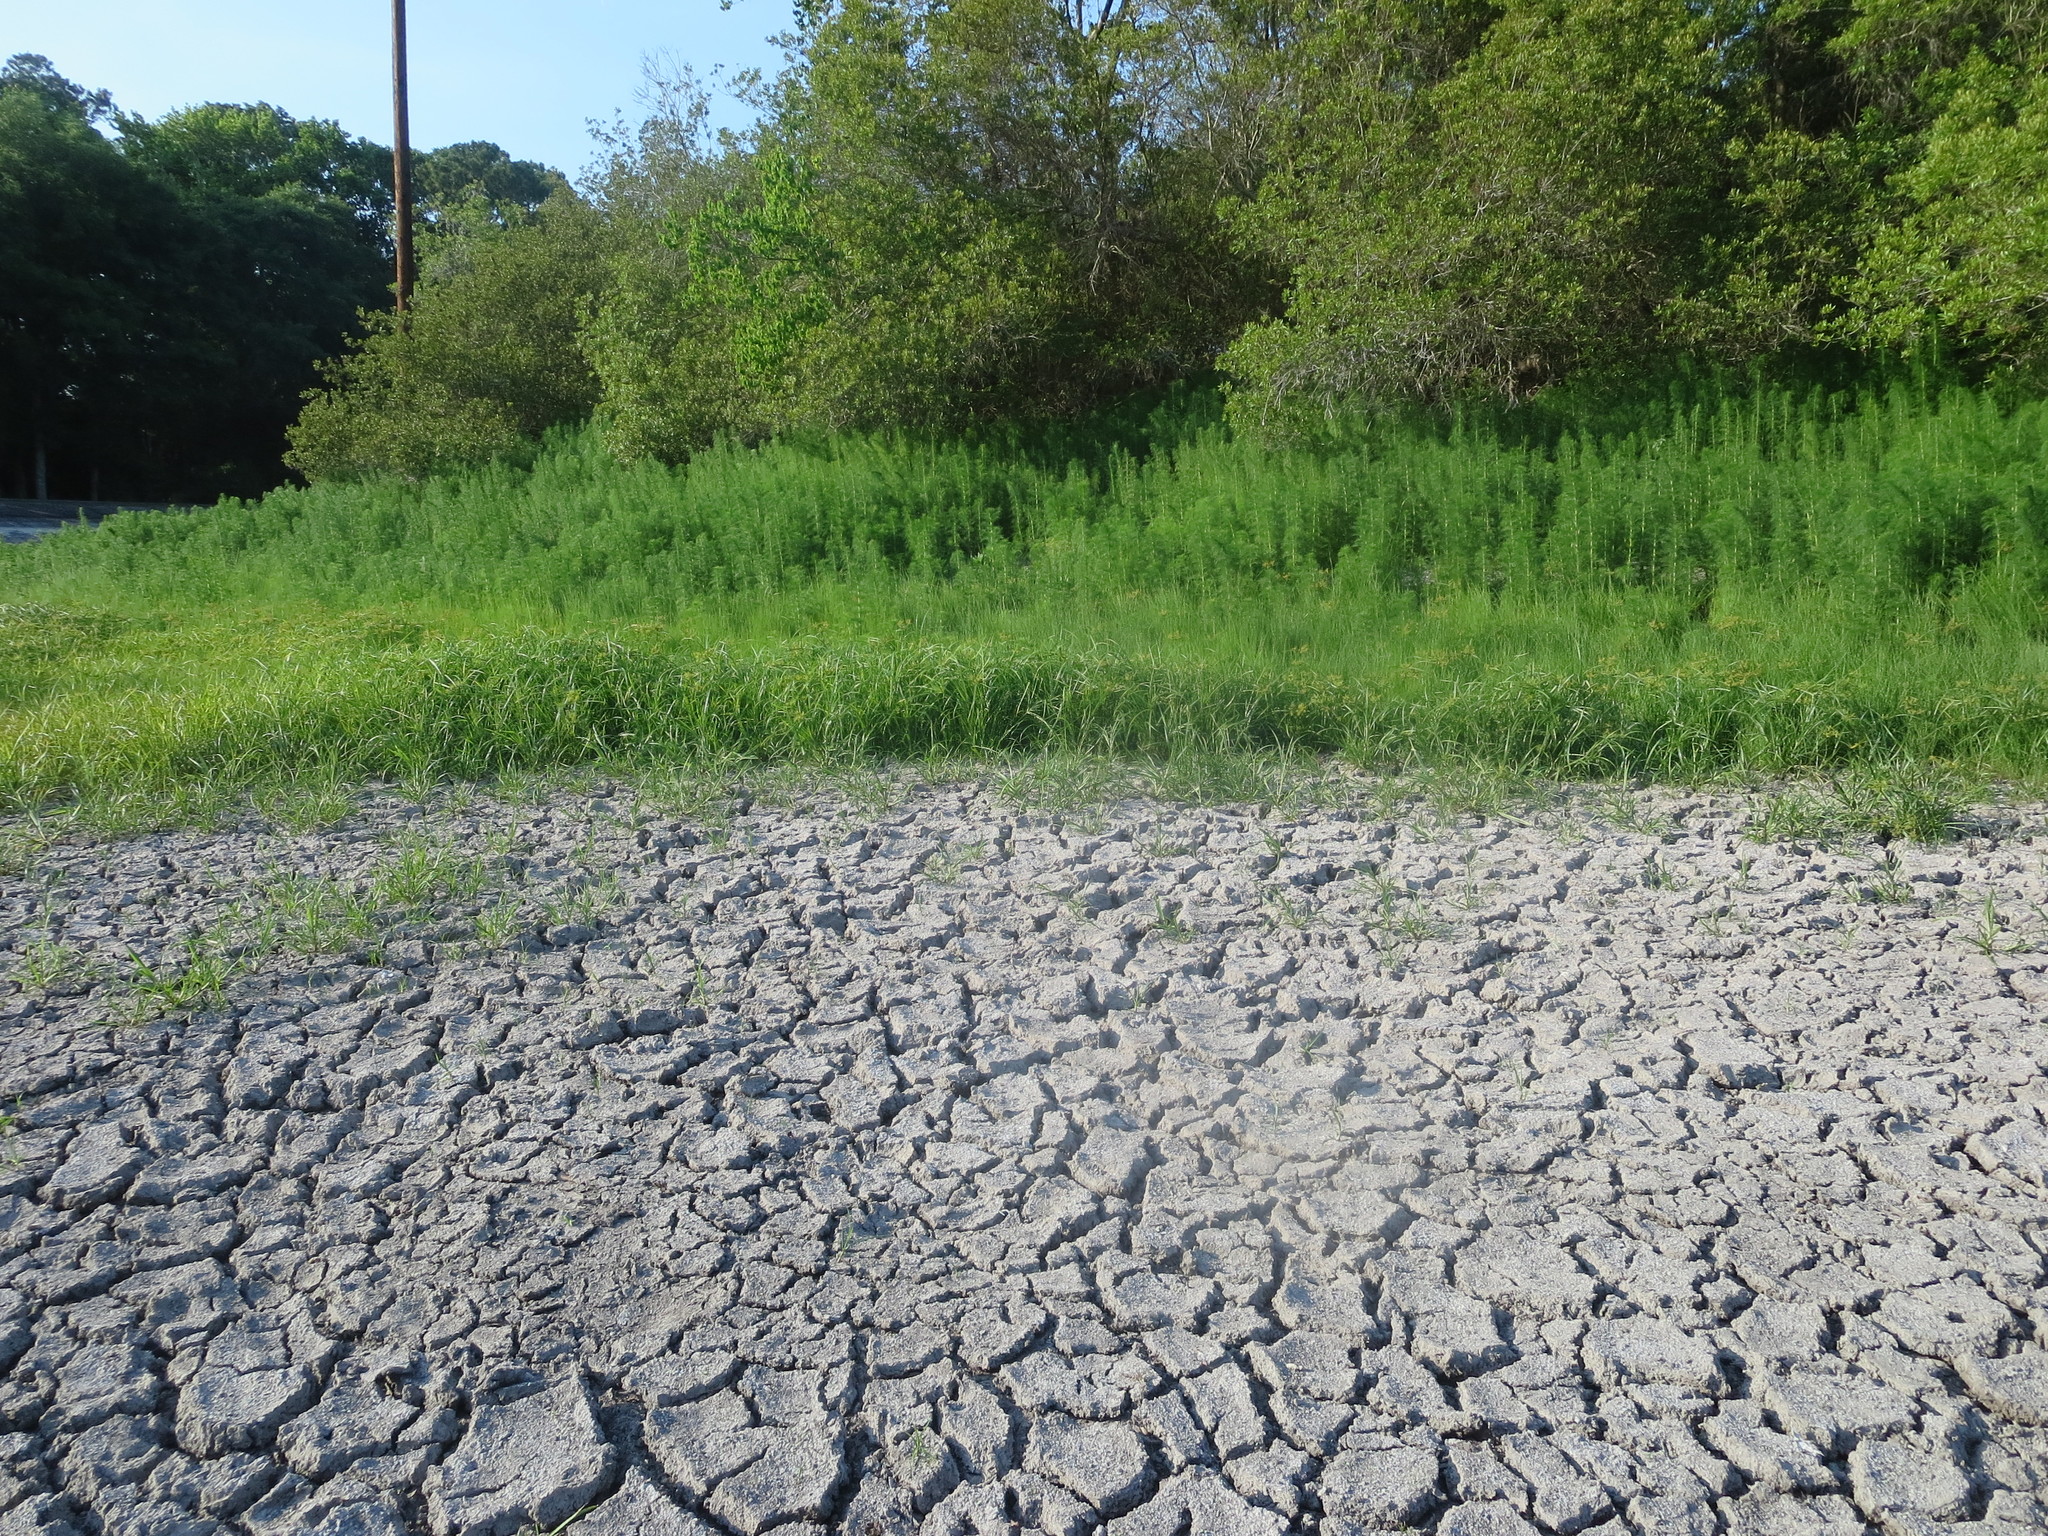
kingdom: Plantae
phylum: Tracheophyta
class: Magnoliopsida
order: Asterales
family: Asteraceae
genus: Eupatorium
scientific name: Eupatorium capillifolium
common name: Dog-fennel
